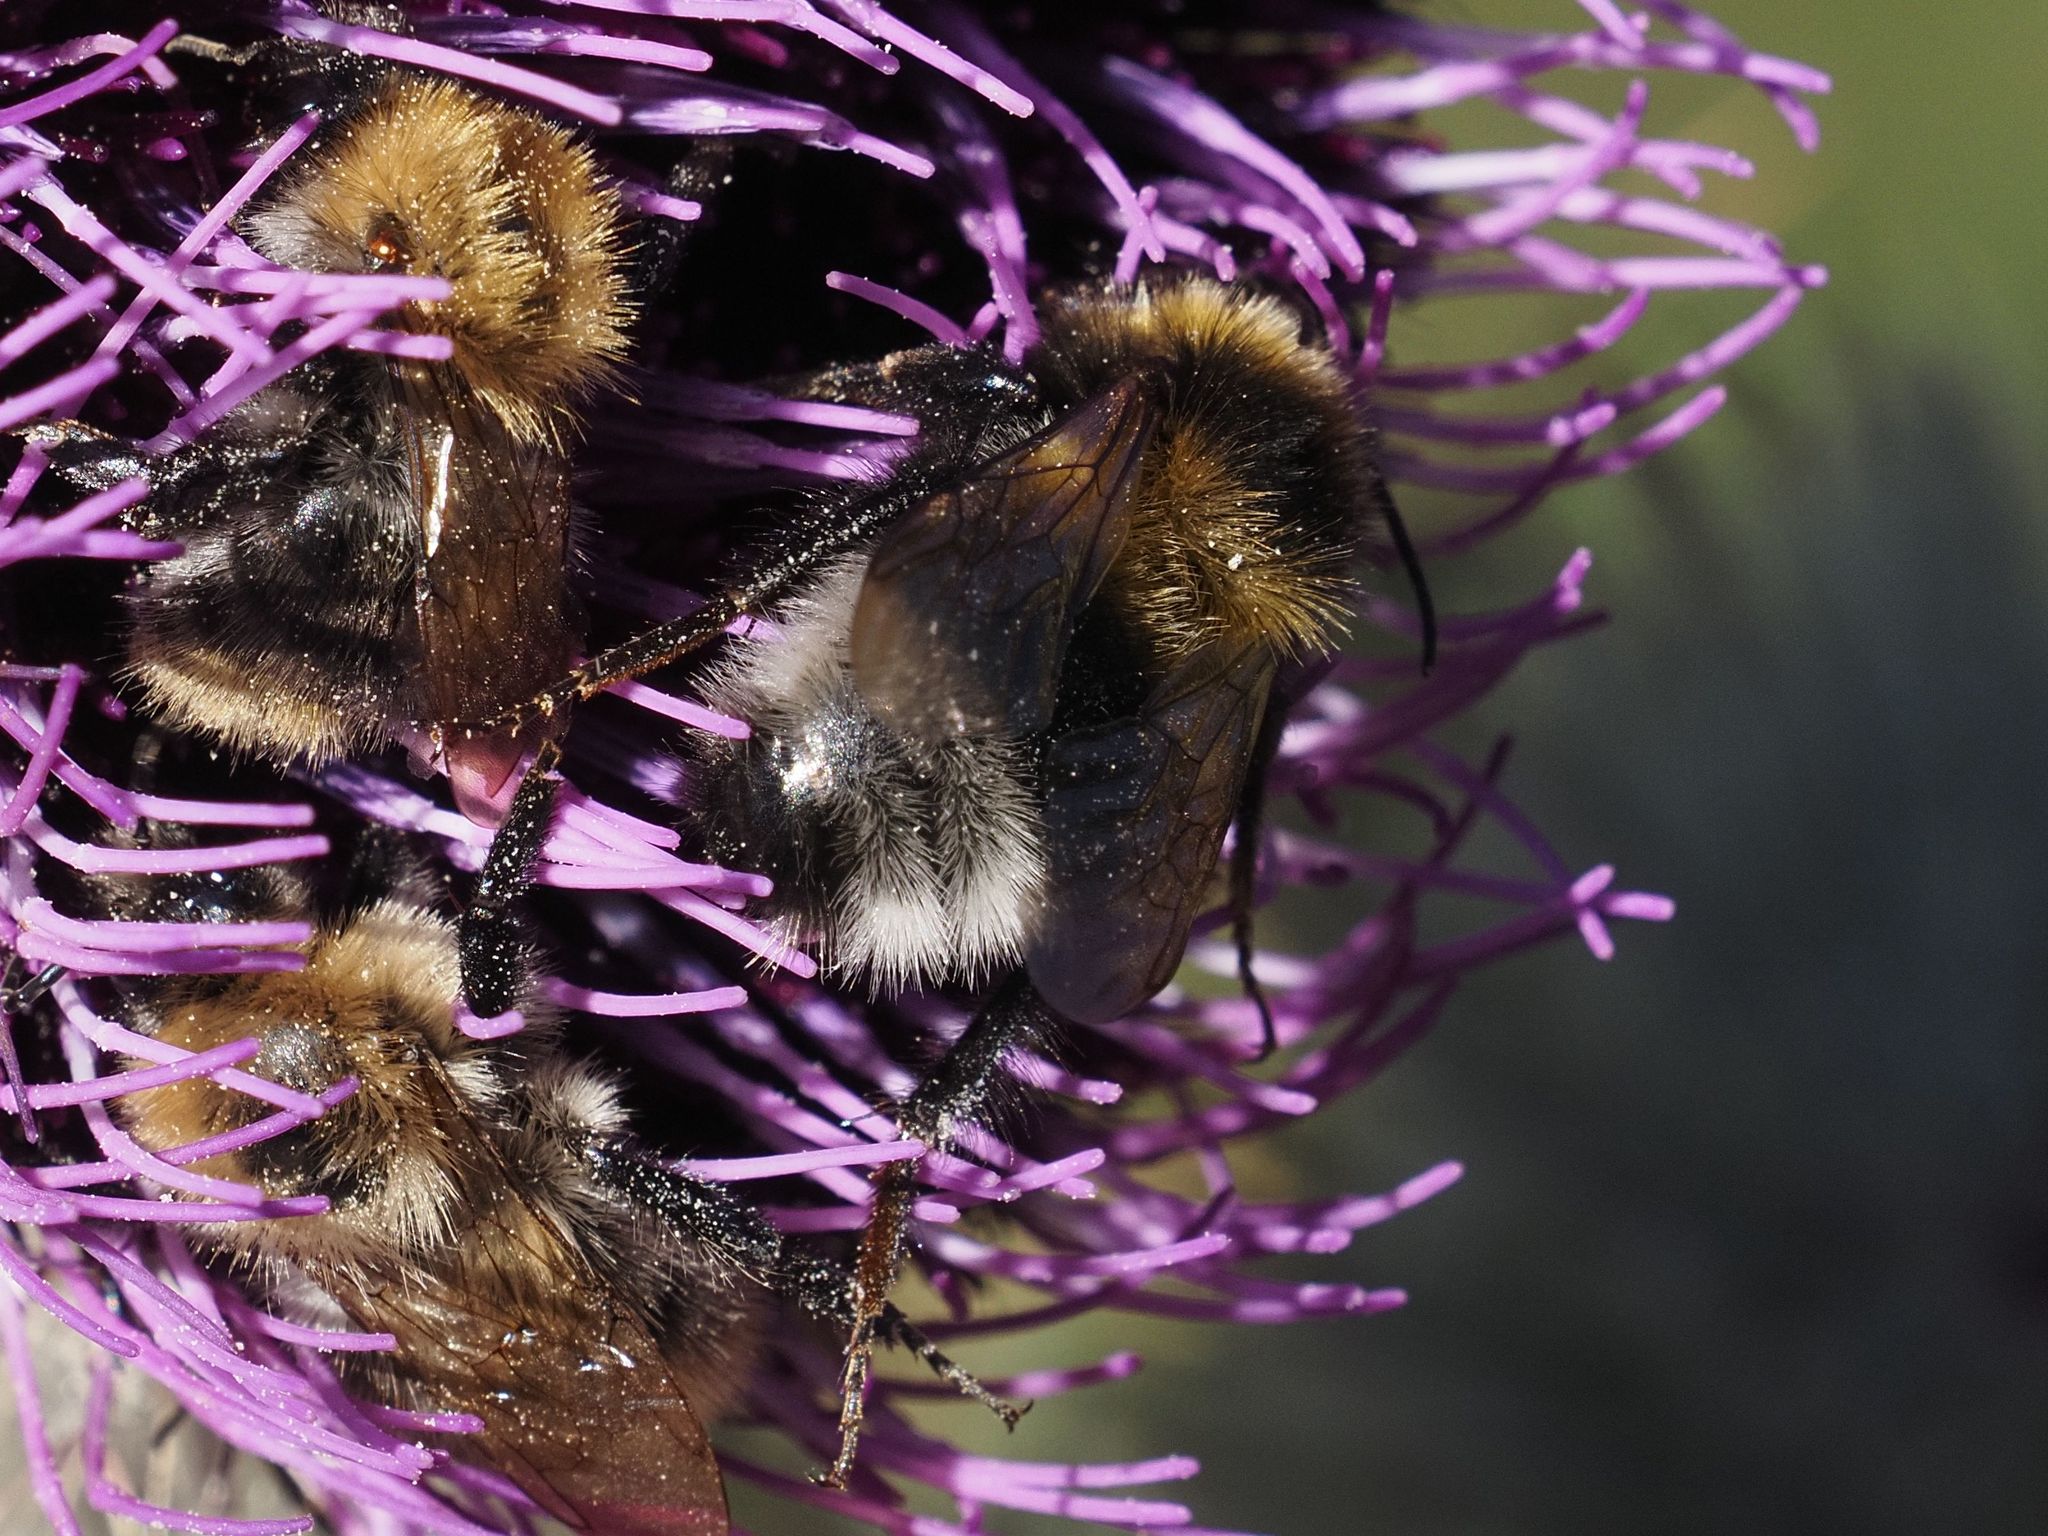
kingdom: Animalia
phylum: Arthropoda
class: Insecta
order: Hymenoptera
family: Apidae
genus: Bombus
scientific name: Bombus hortorum
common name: Garden bumblebee
